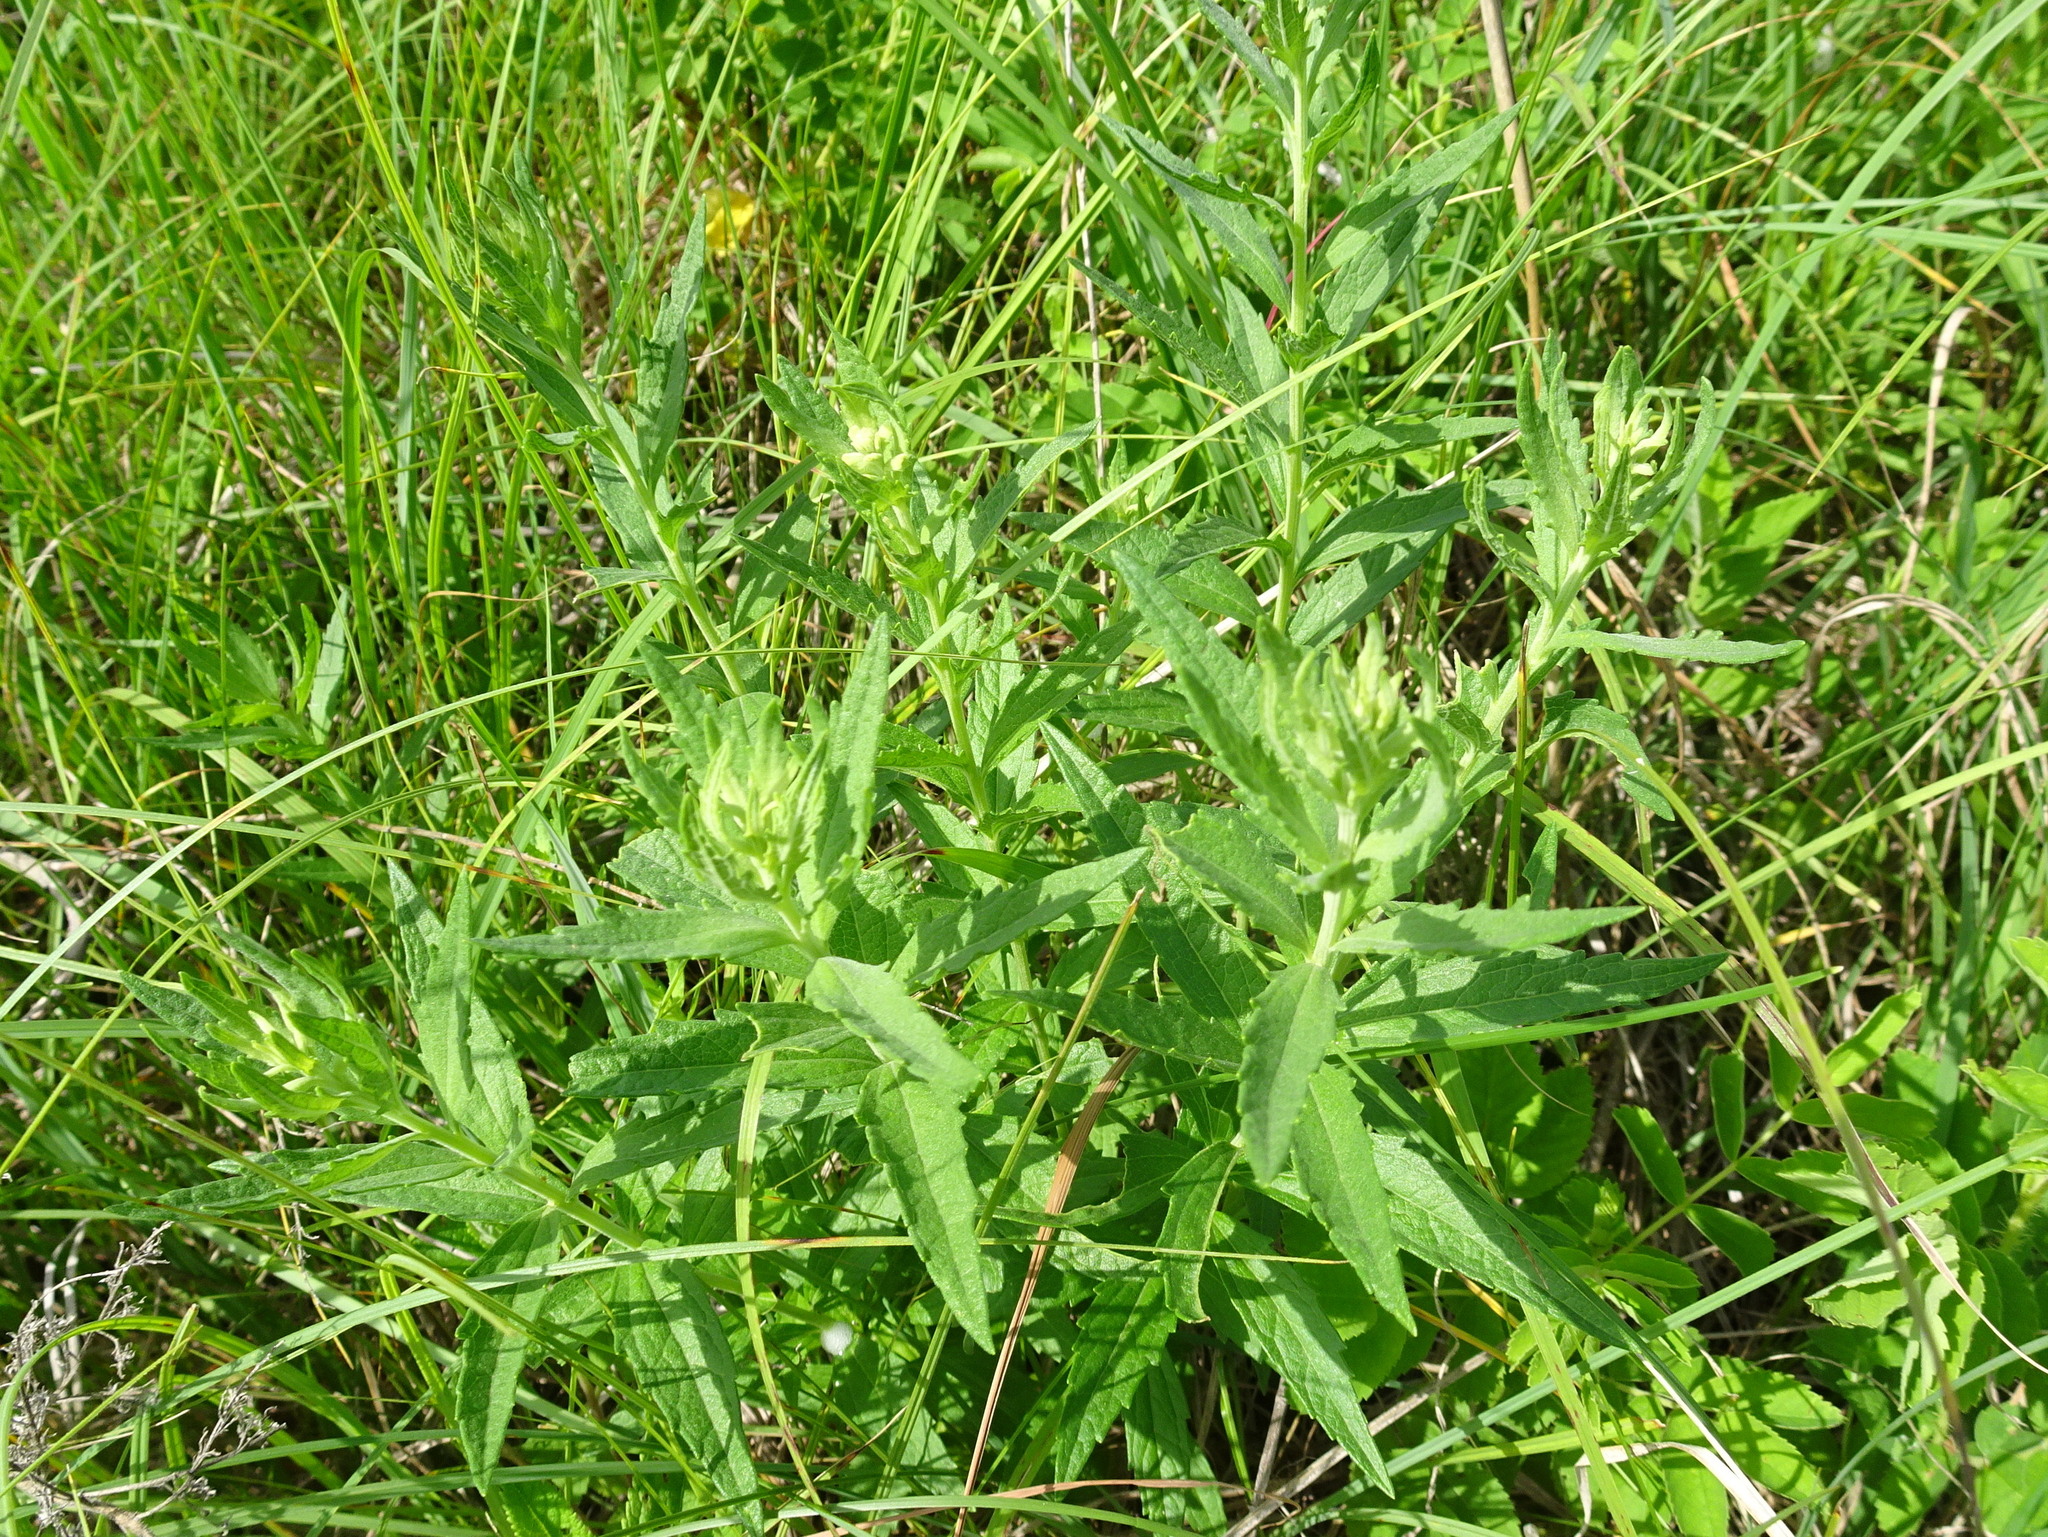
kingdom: Plantae
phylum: Tracheophyta
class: Magnoliopsida
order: Asterales
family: Asteraceae
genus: Brickellia
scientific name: Brickellia eupatorioides
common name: False boneset
